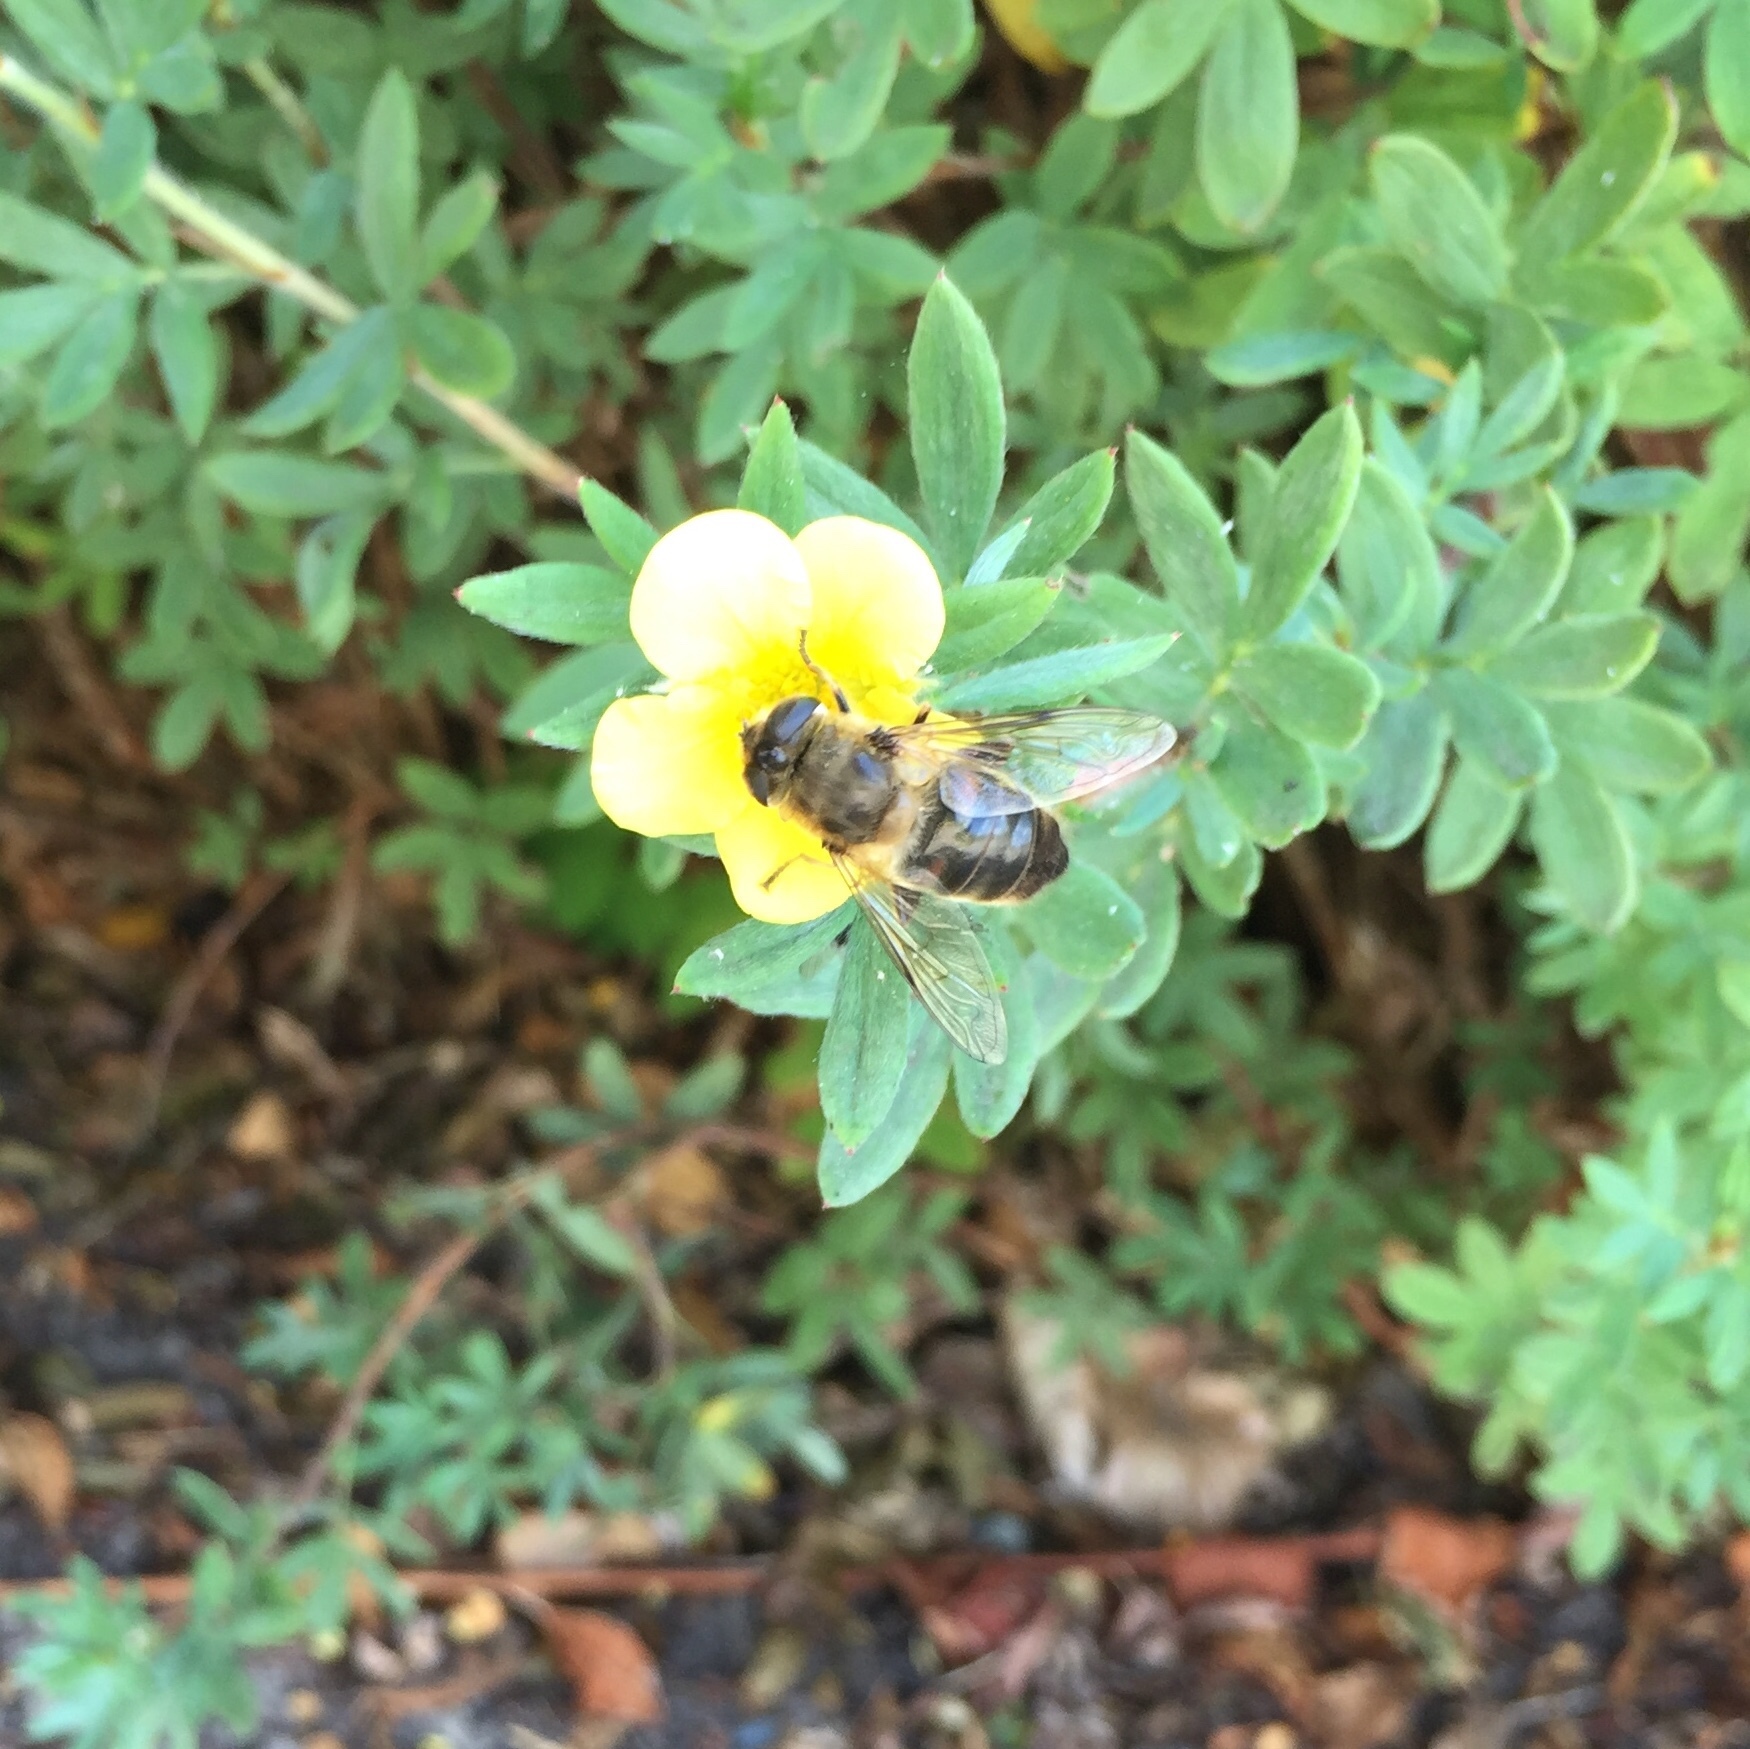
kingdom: Animalia
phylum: Arthropoda
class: Insecta
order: Diptera
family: Syrphidae
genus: Eristalis
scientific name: Eristalis tenax
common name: Drone fly
